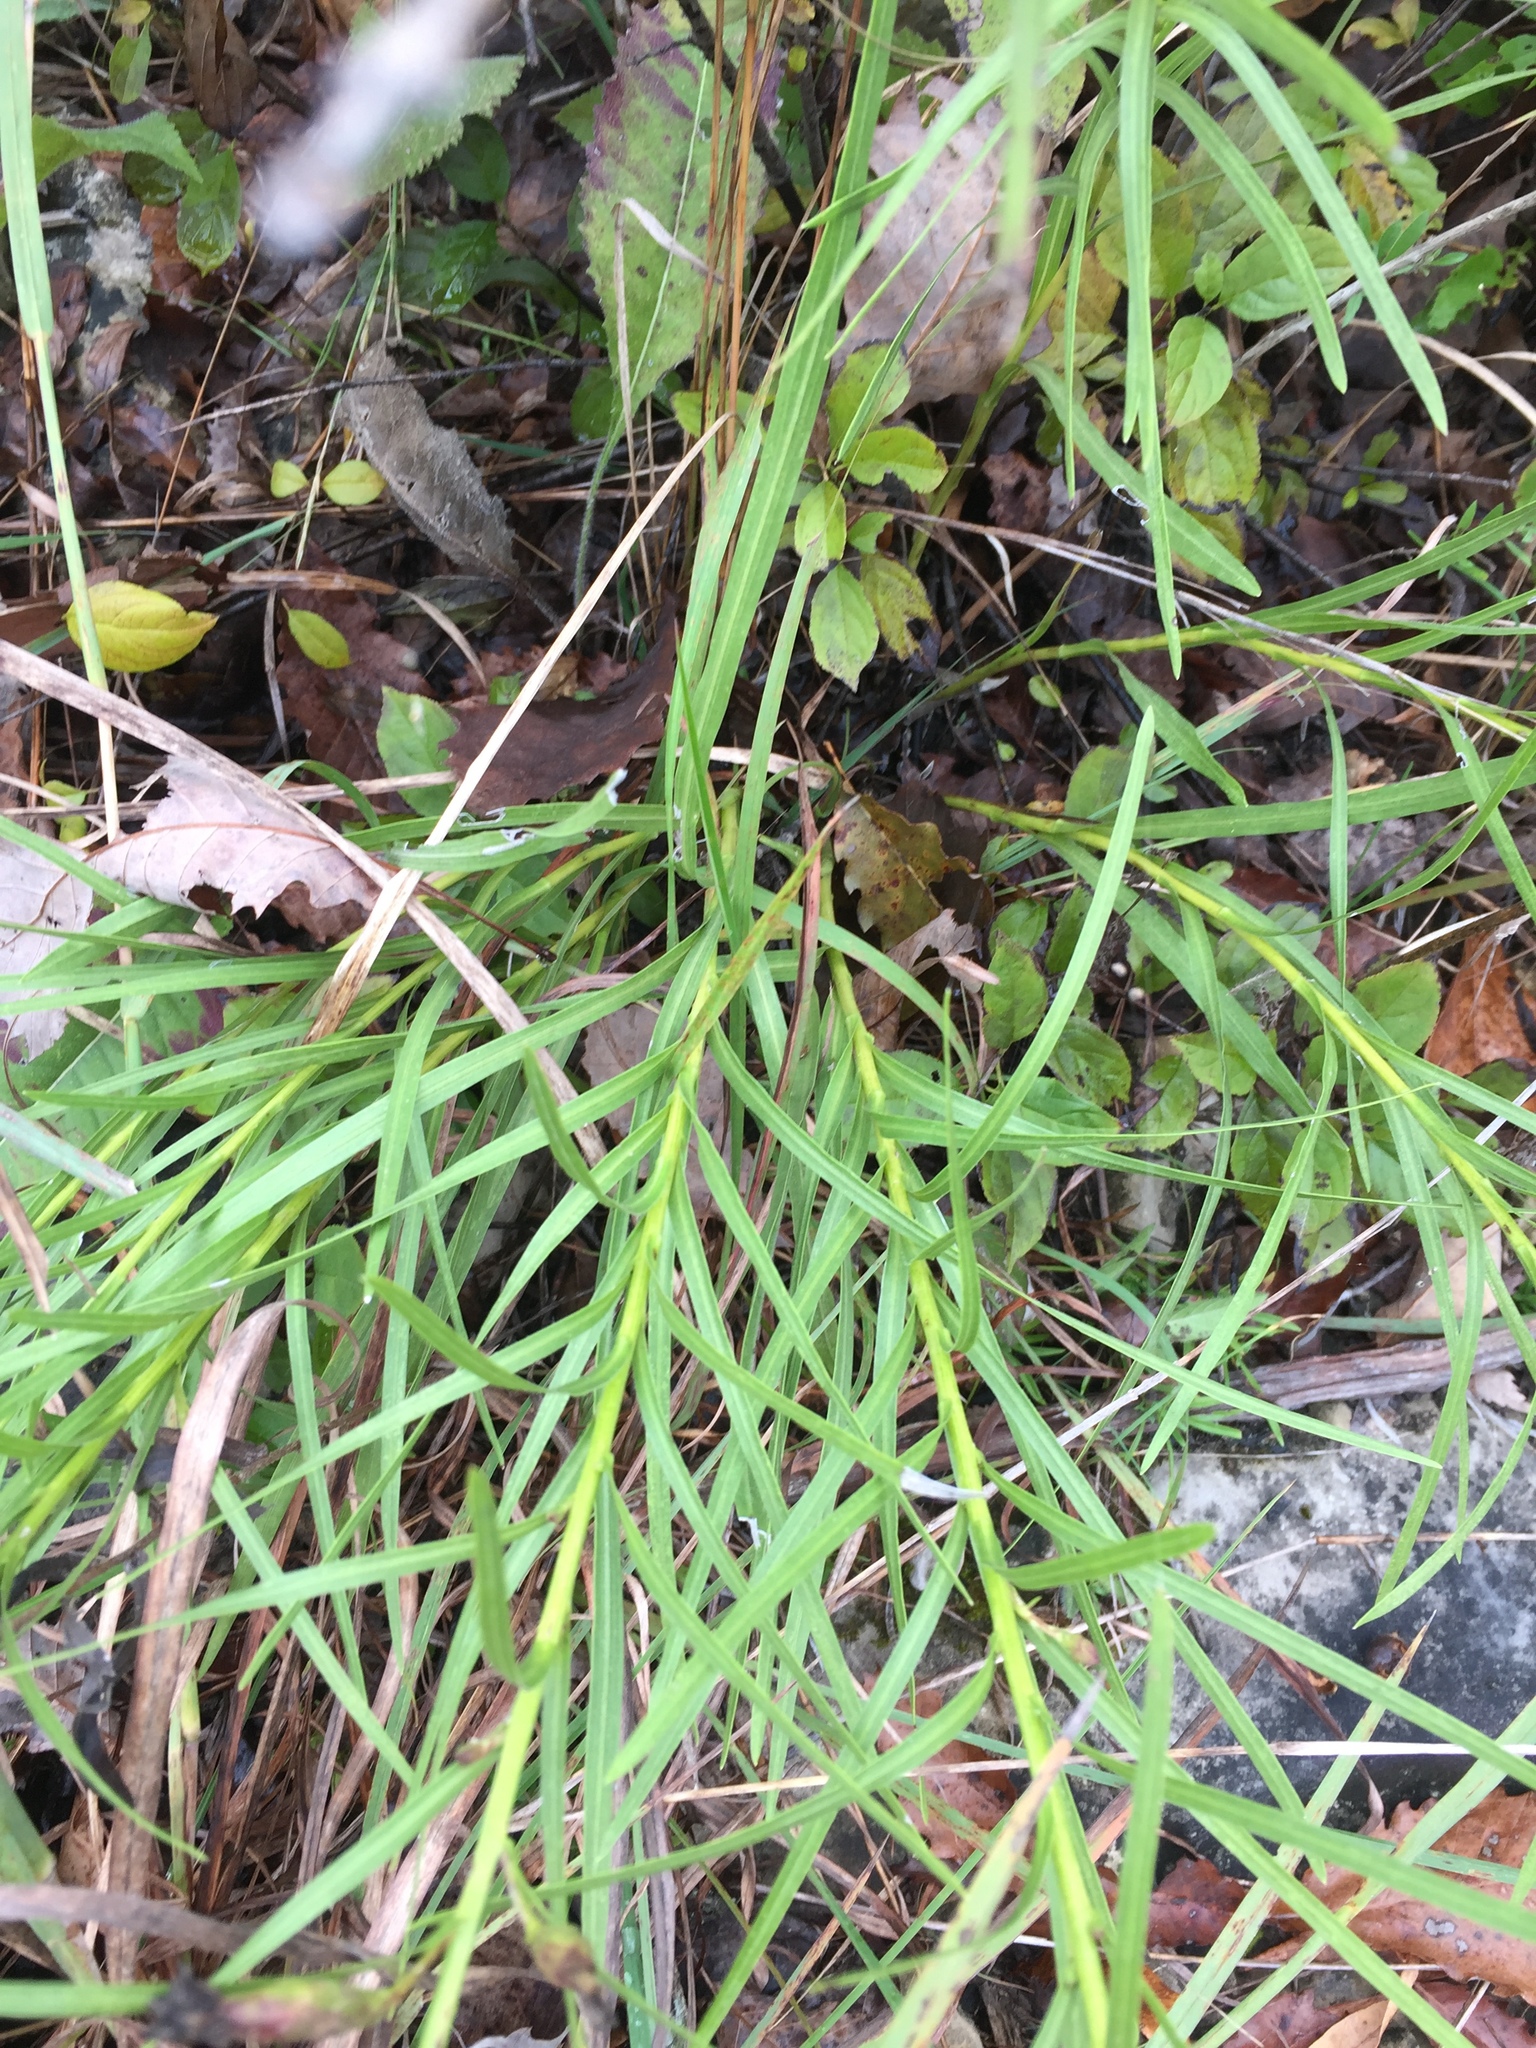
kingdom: Plantae
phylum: Tracheophyta
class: Magnoliopsida
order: Asterales
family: Asteraceae
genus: Liatris
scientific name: Liatris cylindracea
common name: Few-head blazingstar
